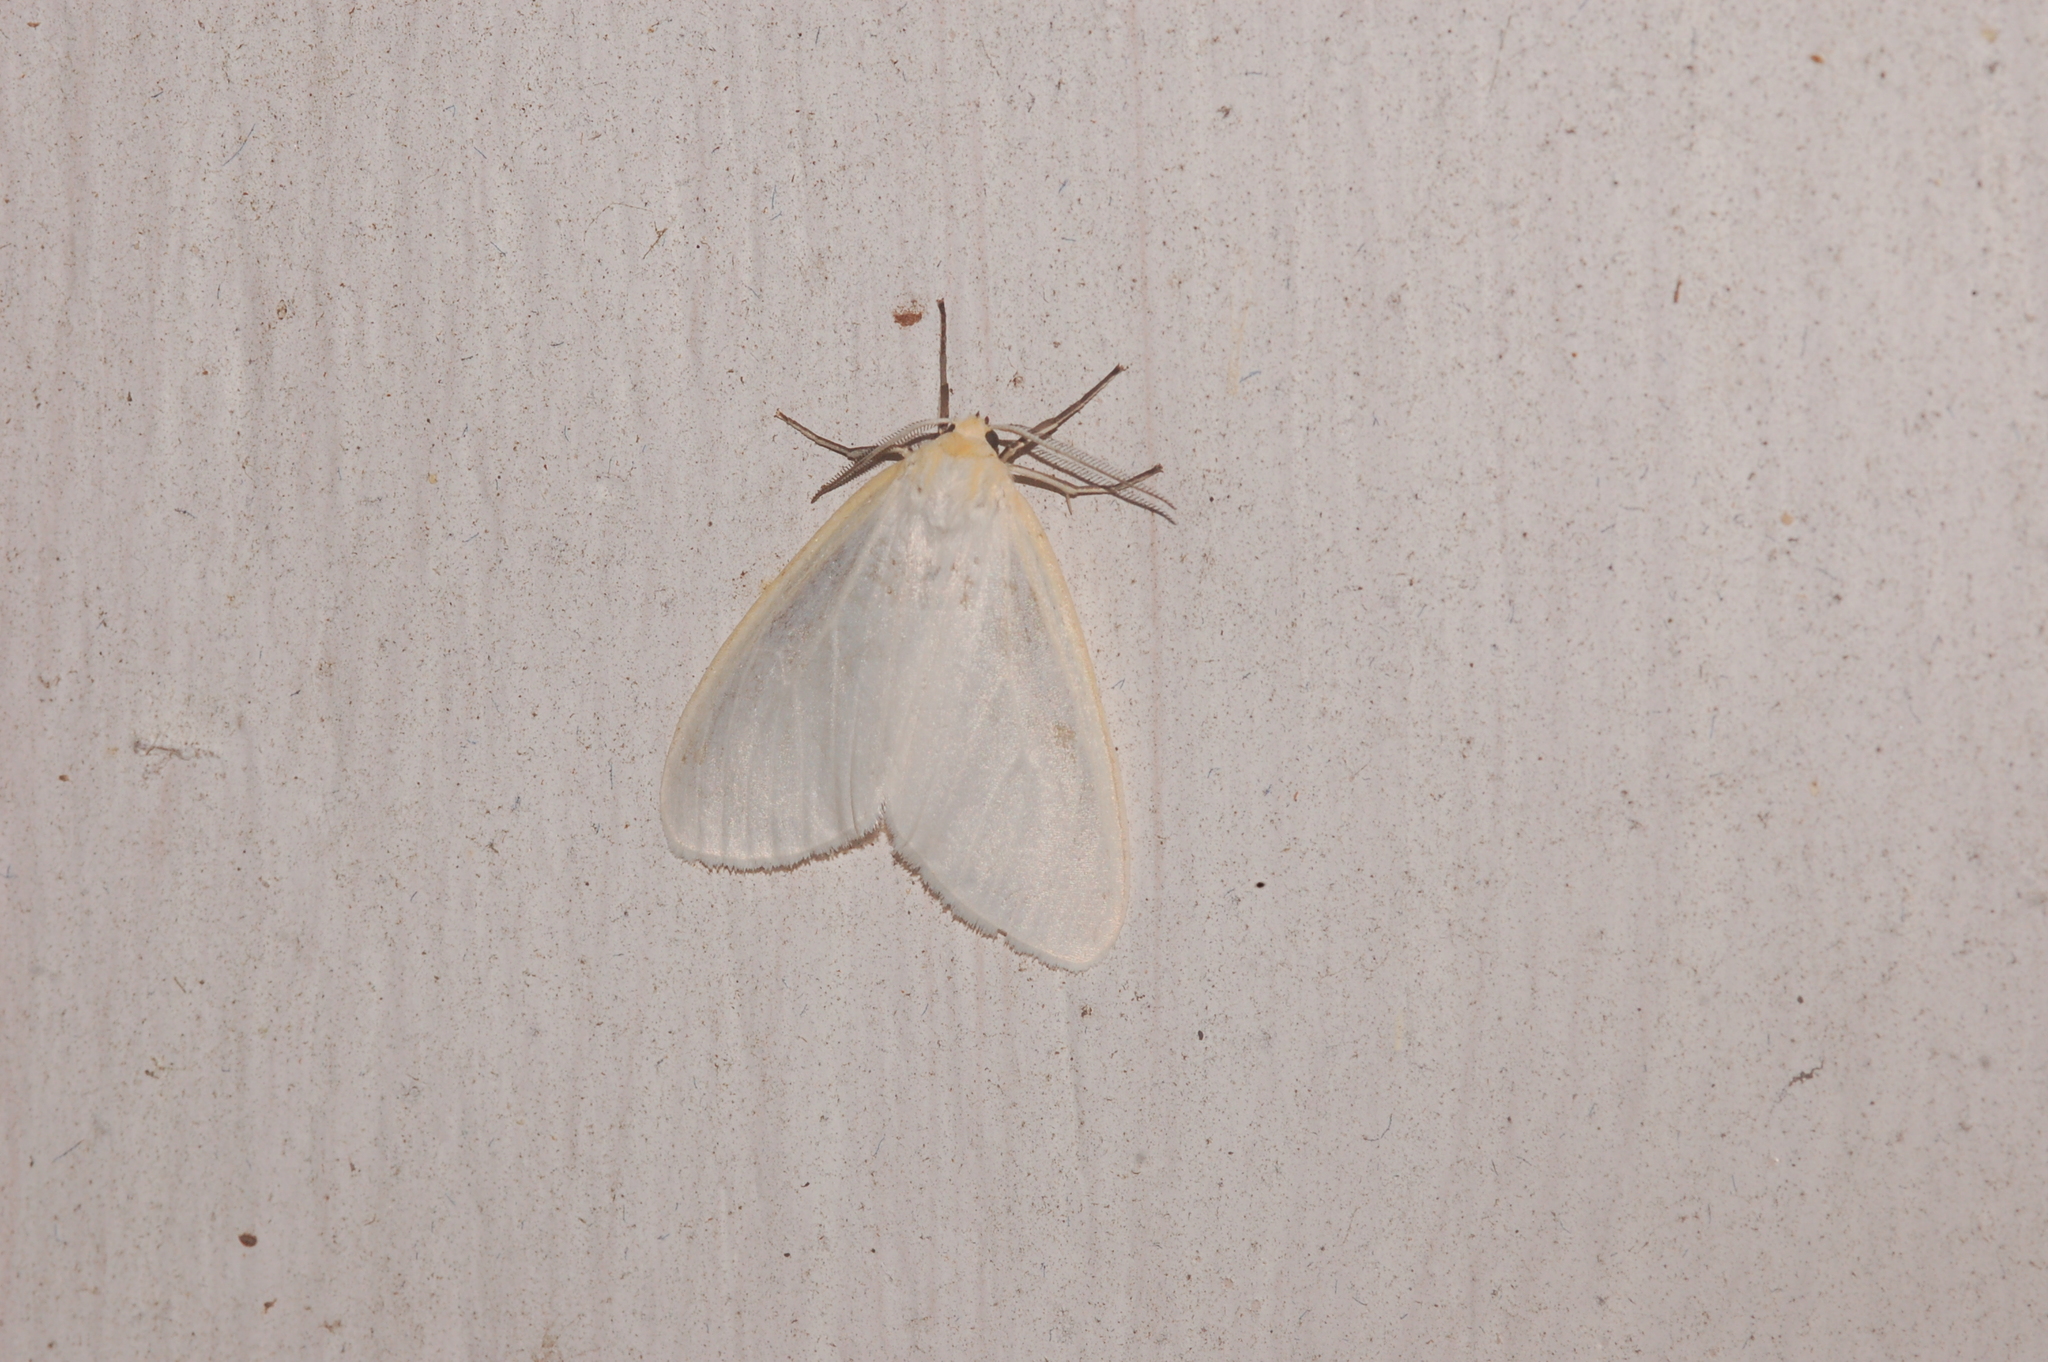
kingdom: Animalia
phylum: Arthropoda
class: Insecta
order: Lepidoptera
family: Erebidae
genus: Cycnia
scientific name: Cycnia tenera
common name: Delicate cycnia moth
